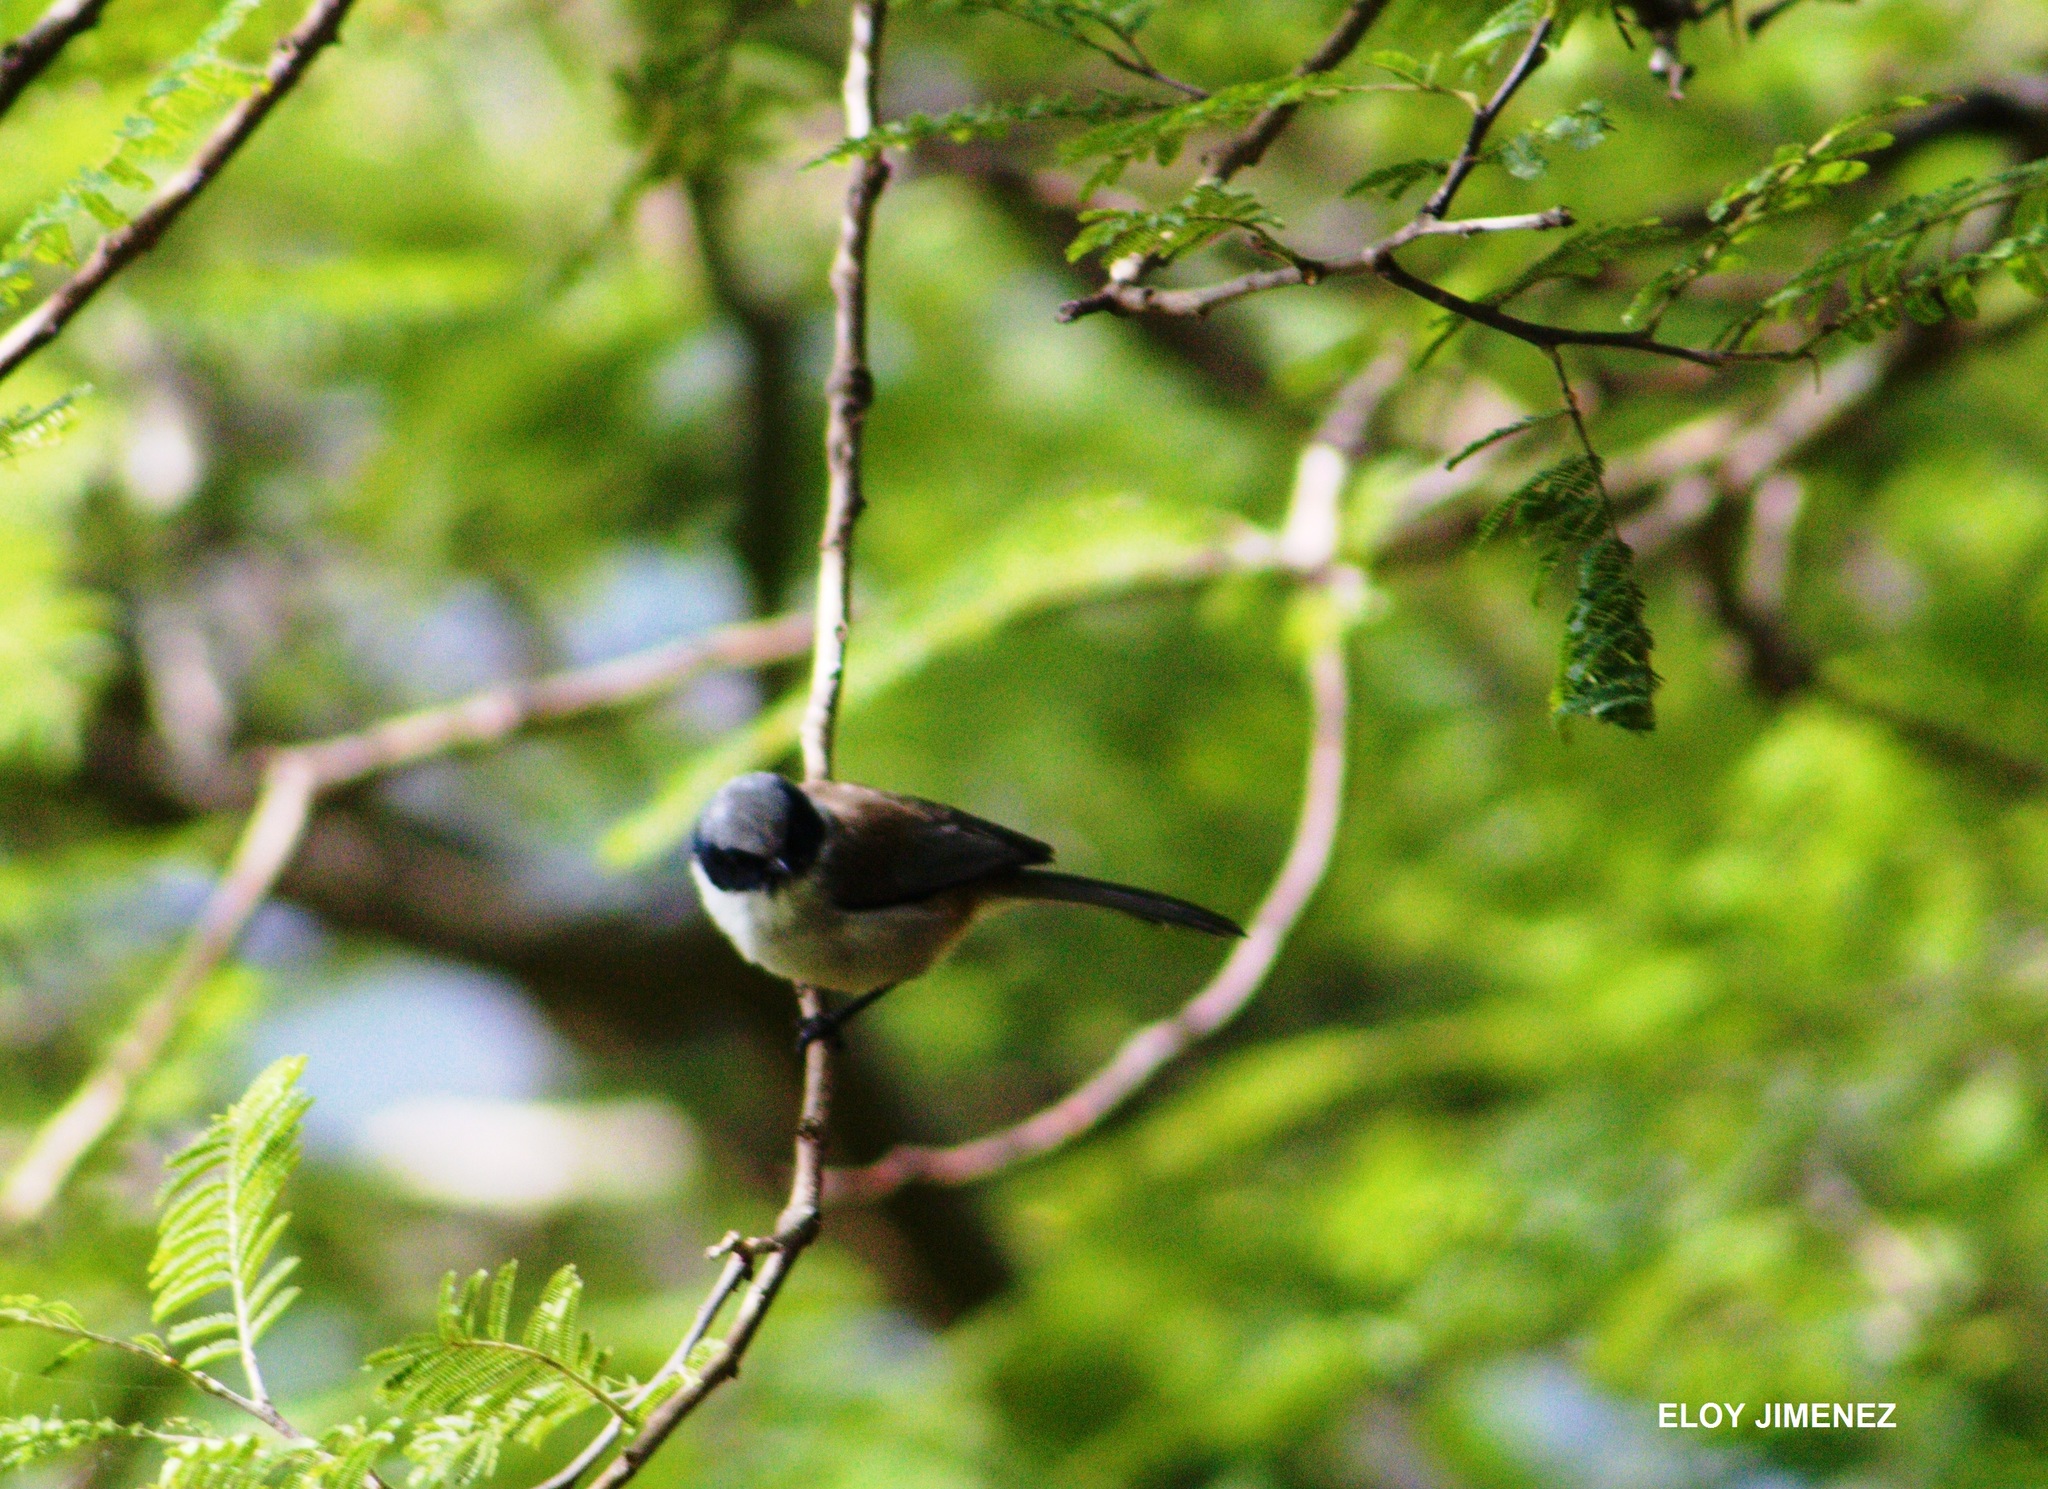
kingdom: Animalia
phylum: Chordata
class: Aves
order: Passeriformes
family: Aegithalidae
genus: Psaltriparus
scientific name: Psaltriparus minimus
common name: American bushtit
